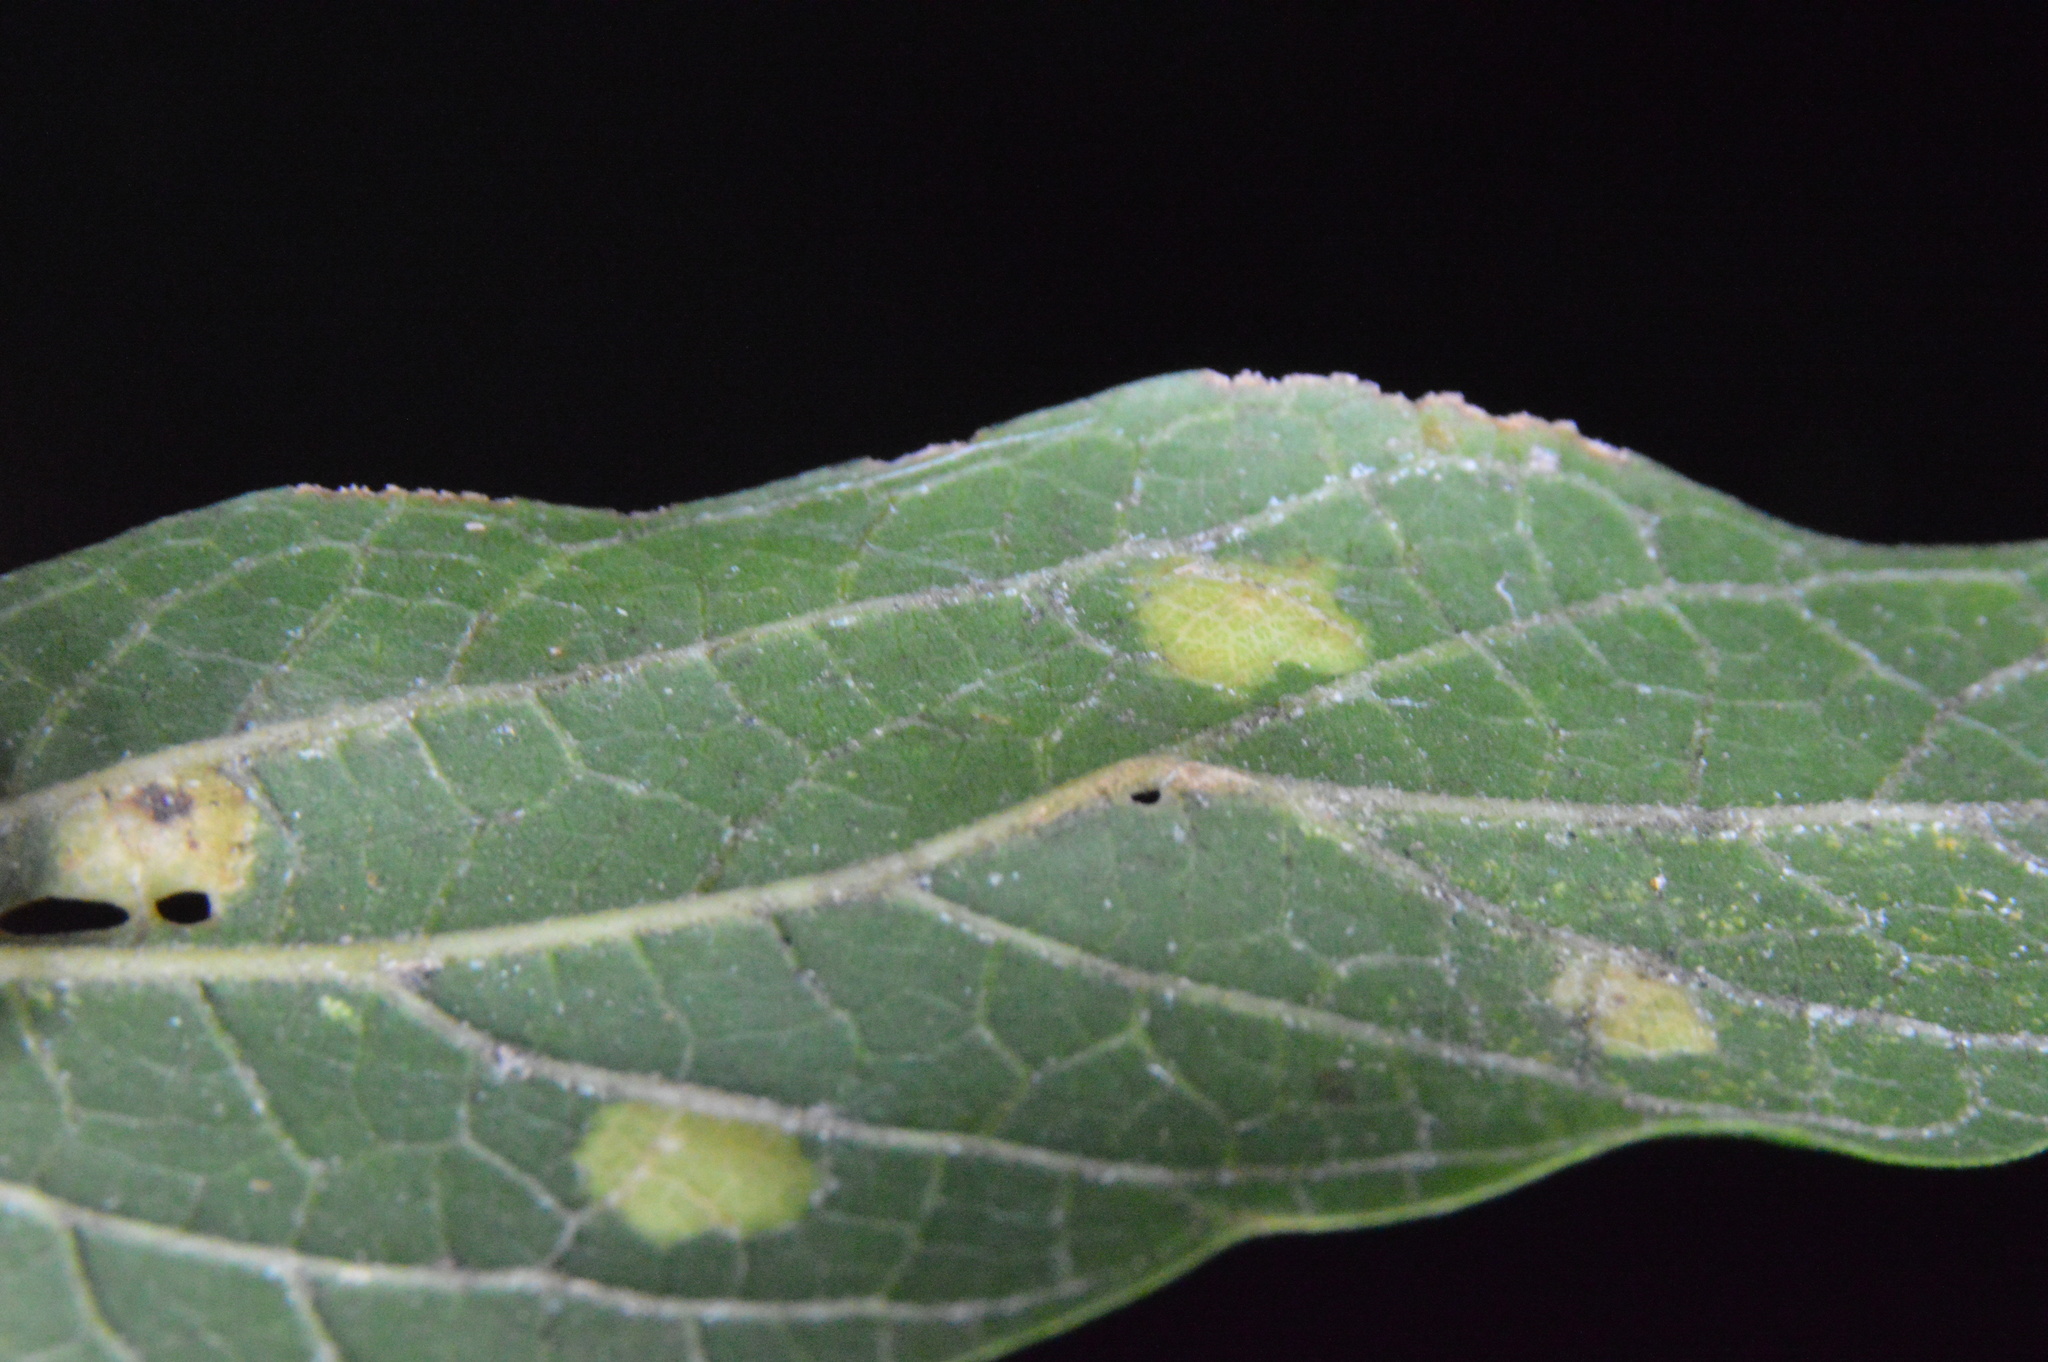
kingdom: Animalia
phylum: Arthropoda
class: Insecta
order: Hemiptera
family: Aphalaridae
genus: Pachypsylla
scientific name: Pachypsylla celtidisvesicula
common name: Hackberry blister gall psyllid
